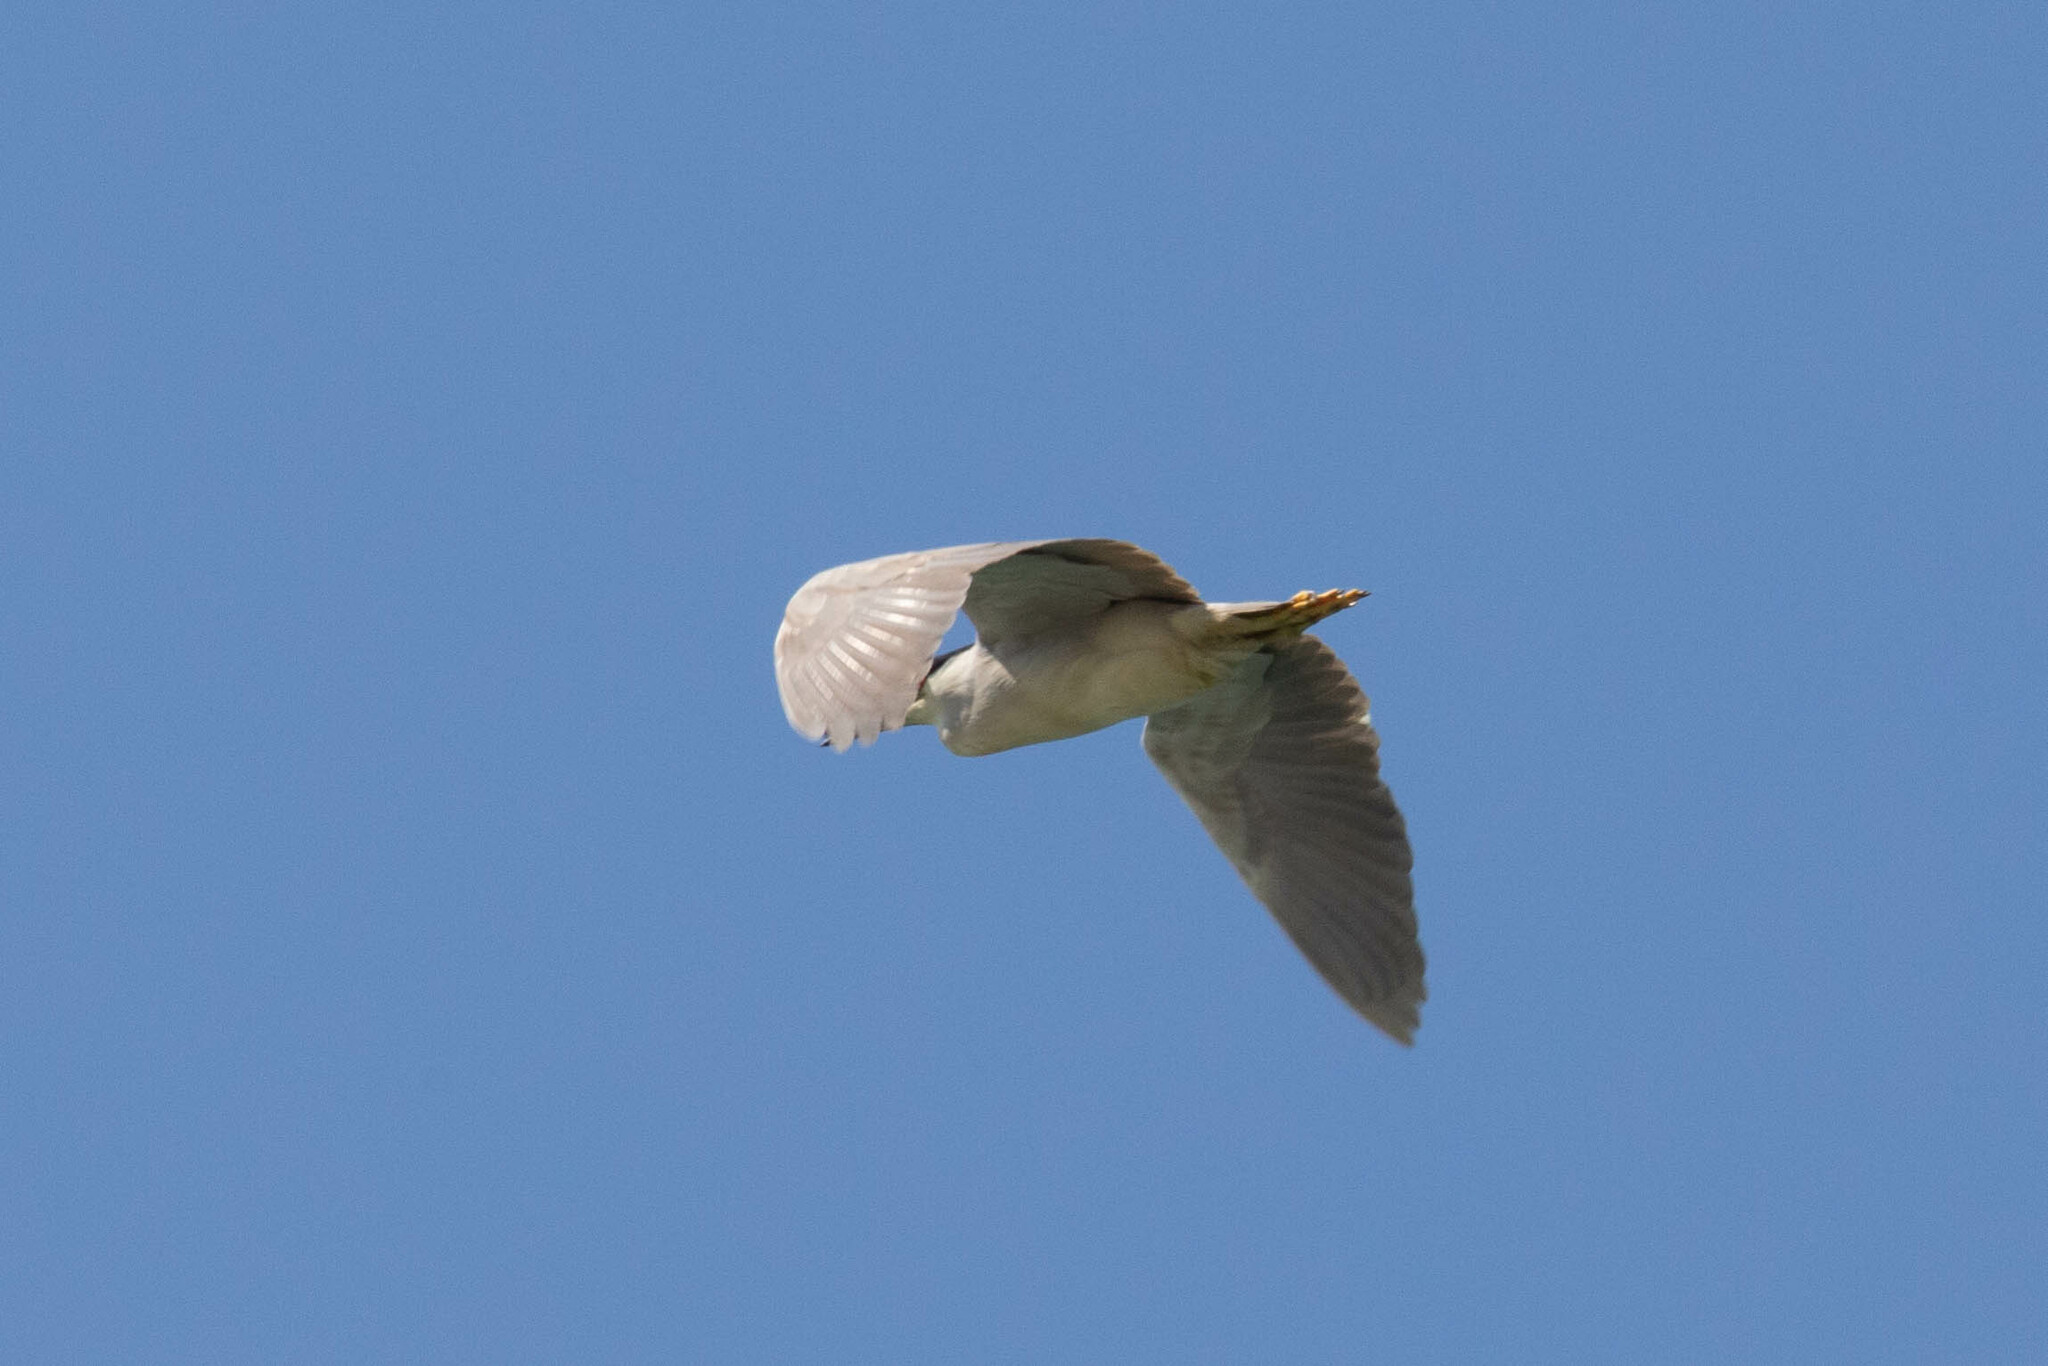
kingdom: Animalia
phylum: Chordata
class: Aves
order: Pelecaniformes
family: Ardeidae
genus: Nycticorax
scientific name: Nycticorax nycticorax
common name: Black-crowned night heron
